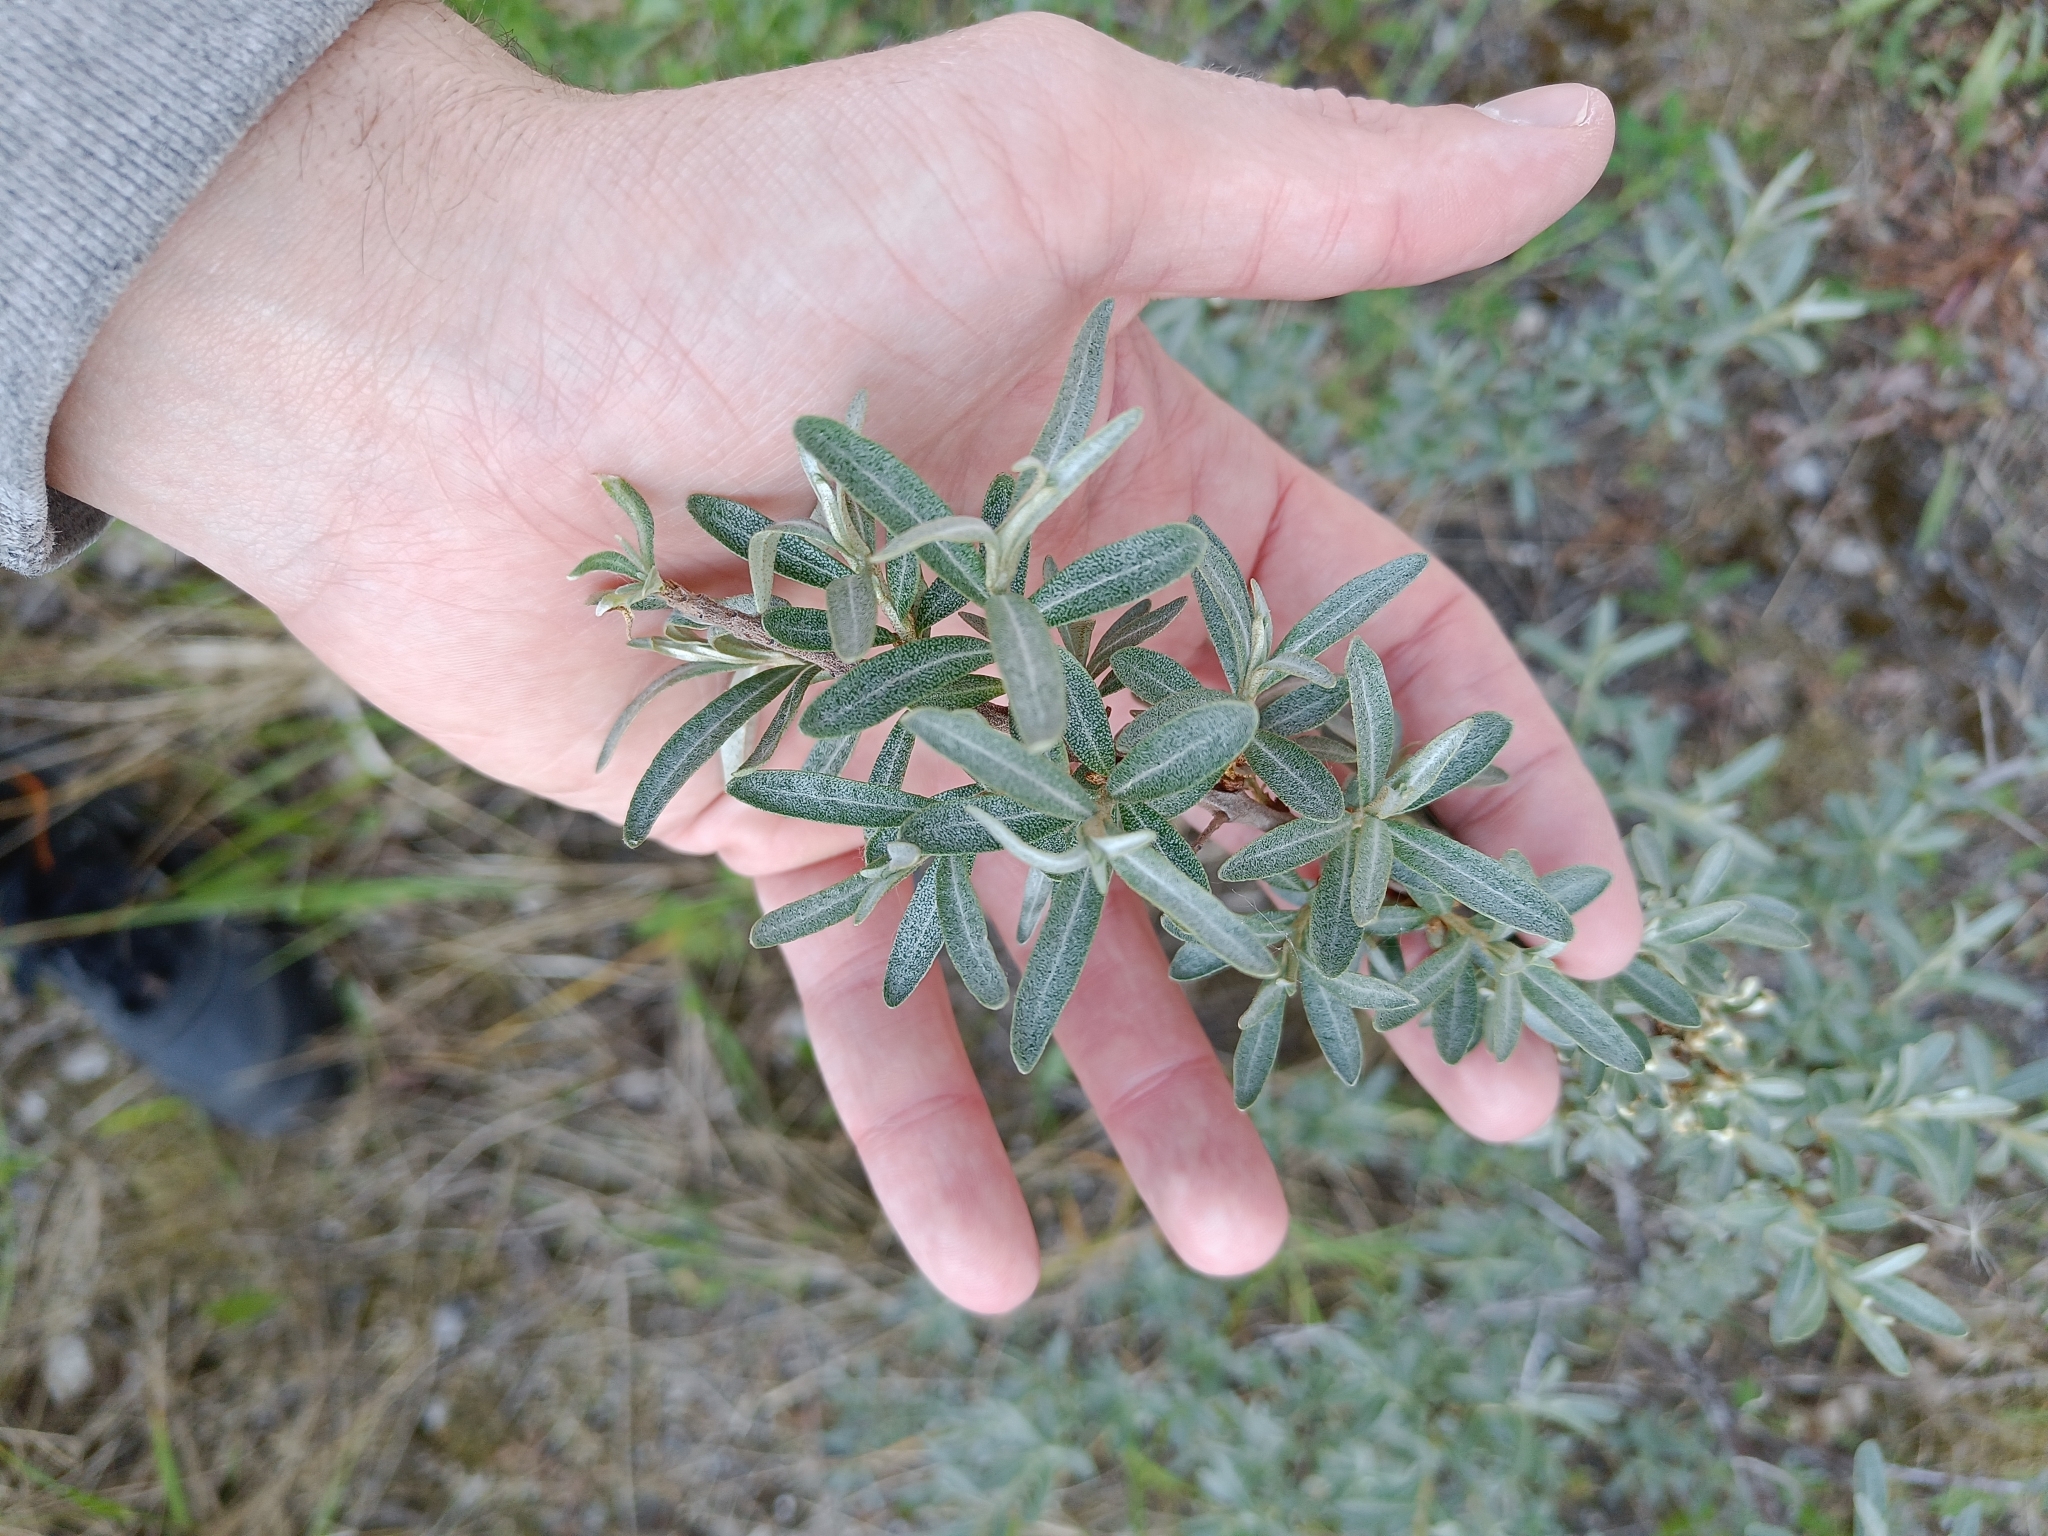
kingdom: Plantae
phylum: Tracheophyta
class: Magnoliopsida
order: Rosales
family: Elaeagnaceae
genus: Hippophae
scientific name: Hippophae rhamnoides
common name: Sea-buckthorn
